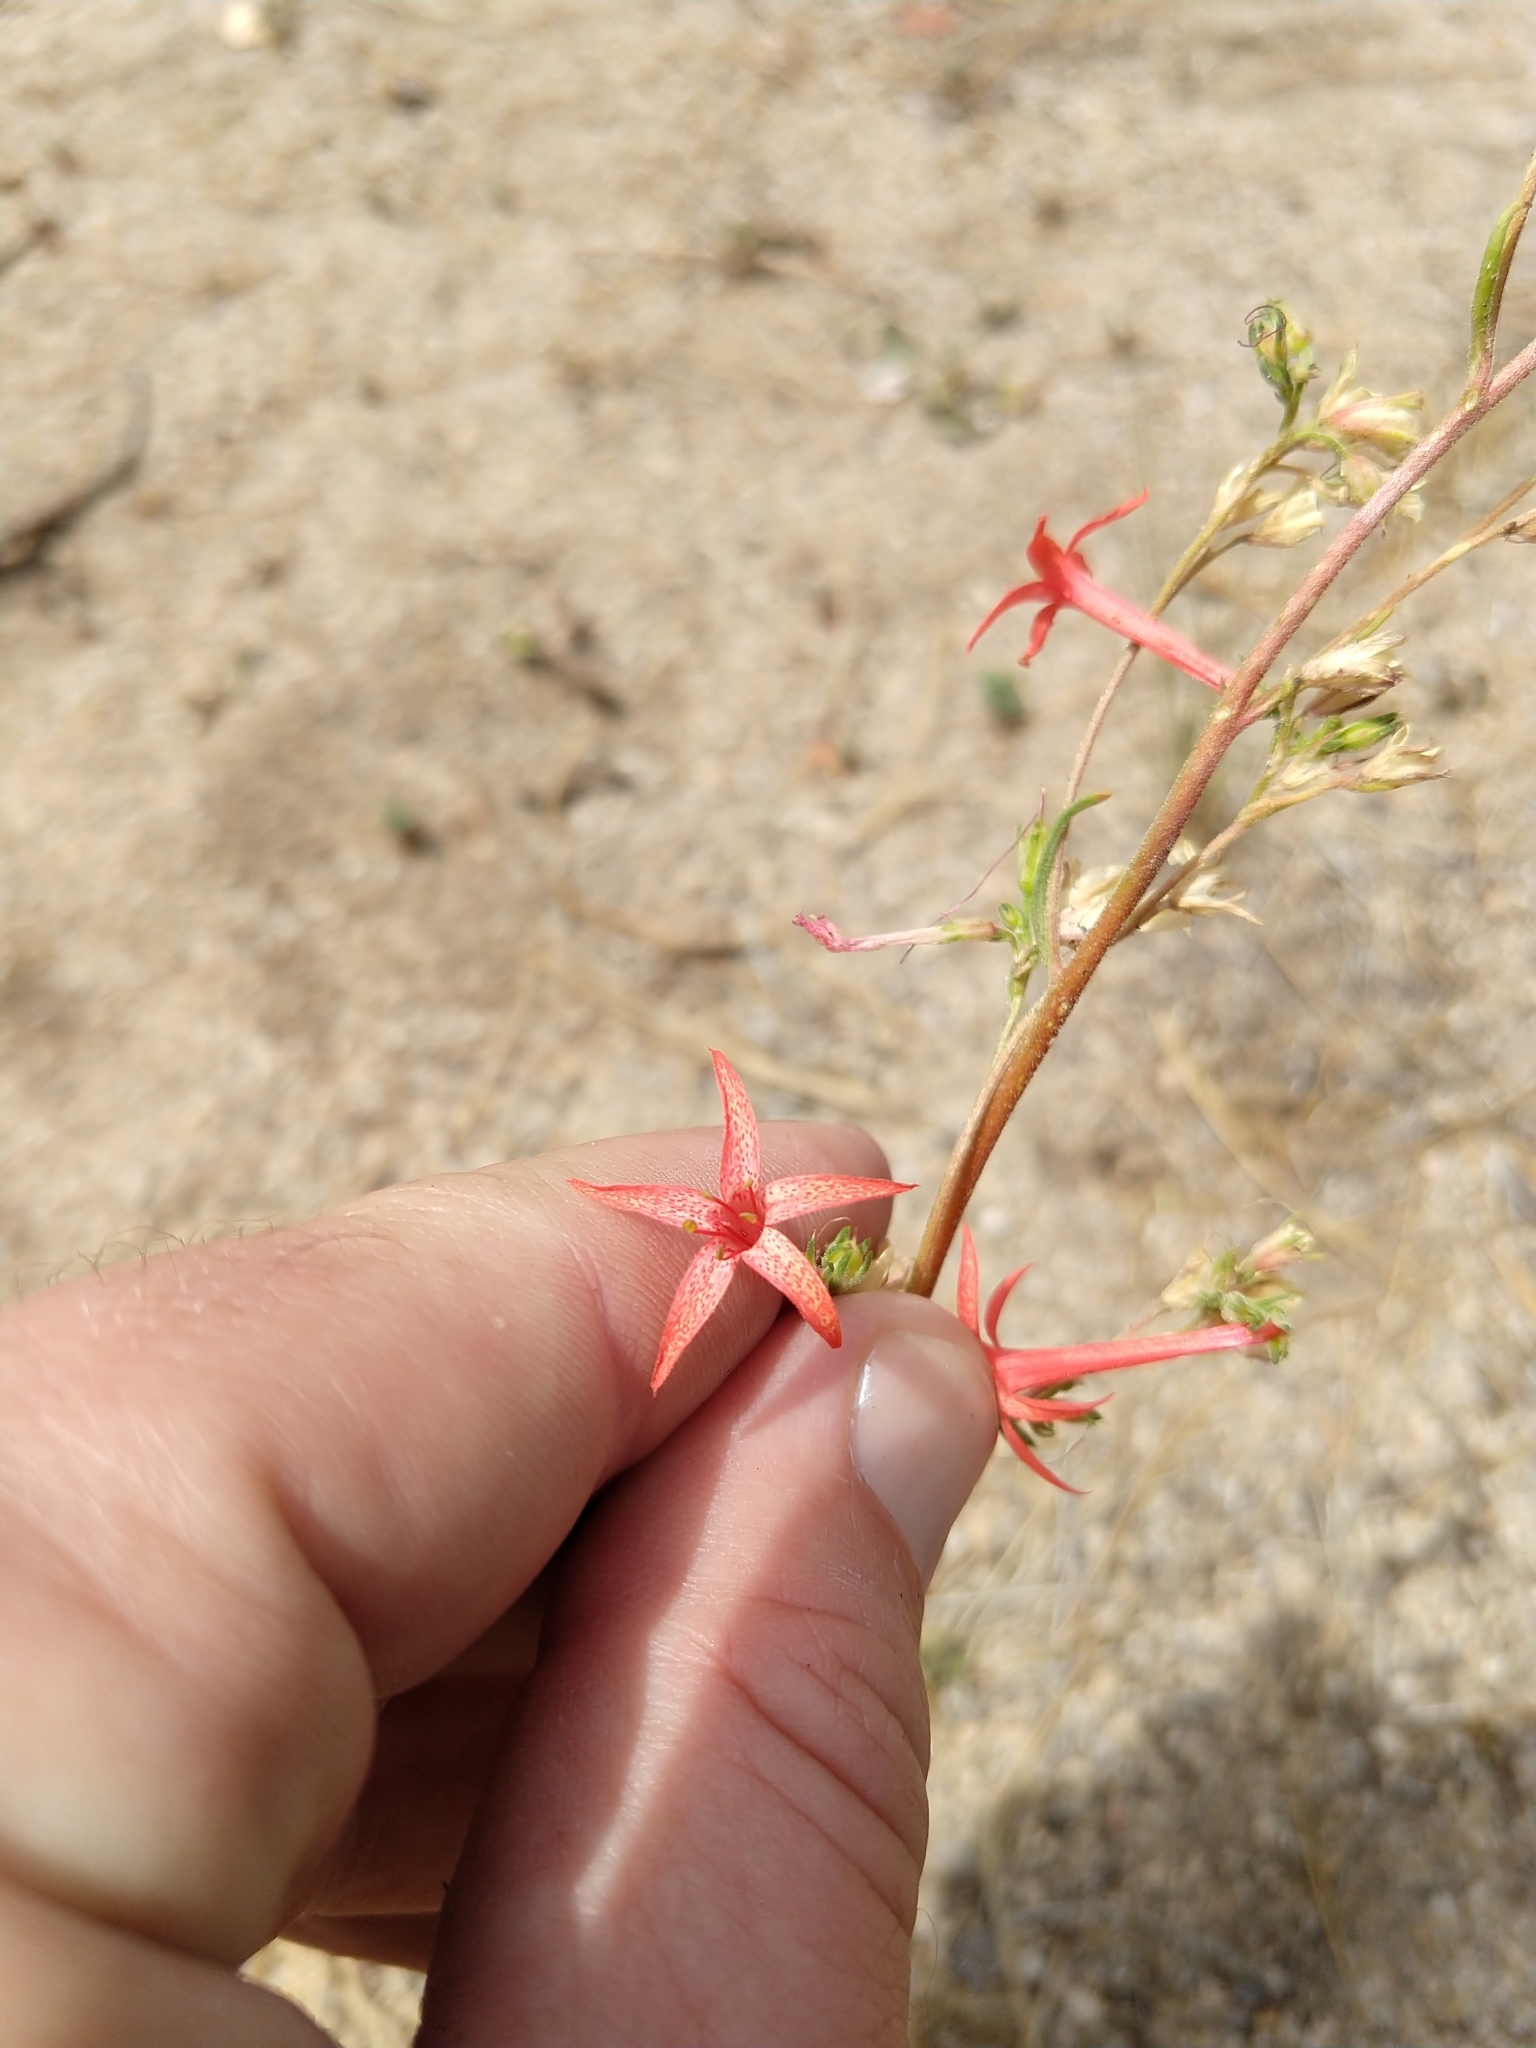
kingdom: Plantae
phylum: Tracheophyta
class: Magnoliopsida
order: Ericales
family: Polemoniaceae
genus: Ipomopsis
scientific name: Ipomopsis aggregata
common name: Scarlet gilia
